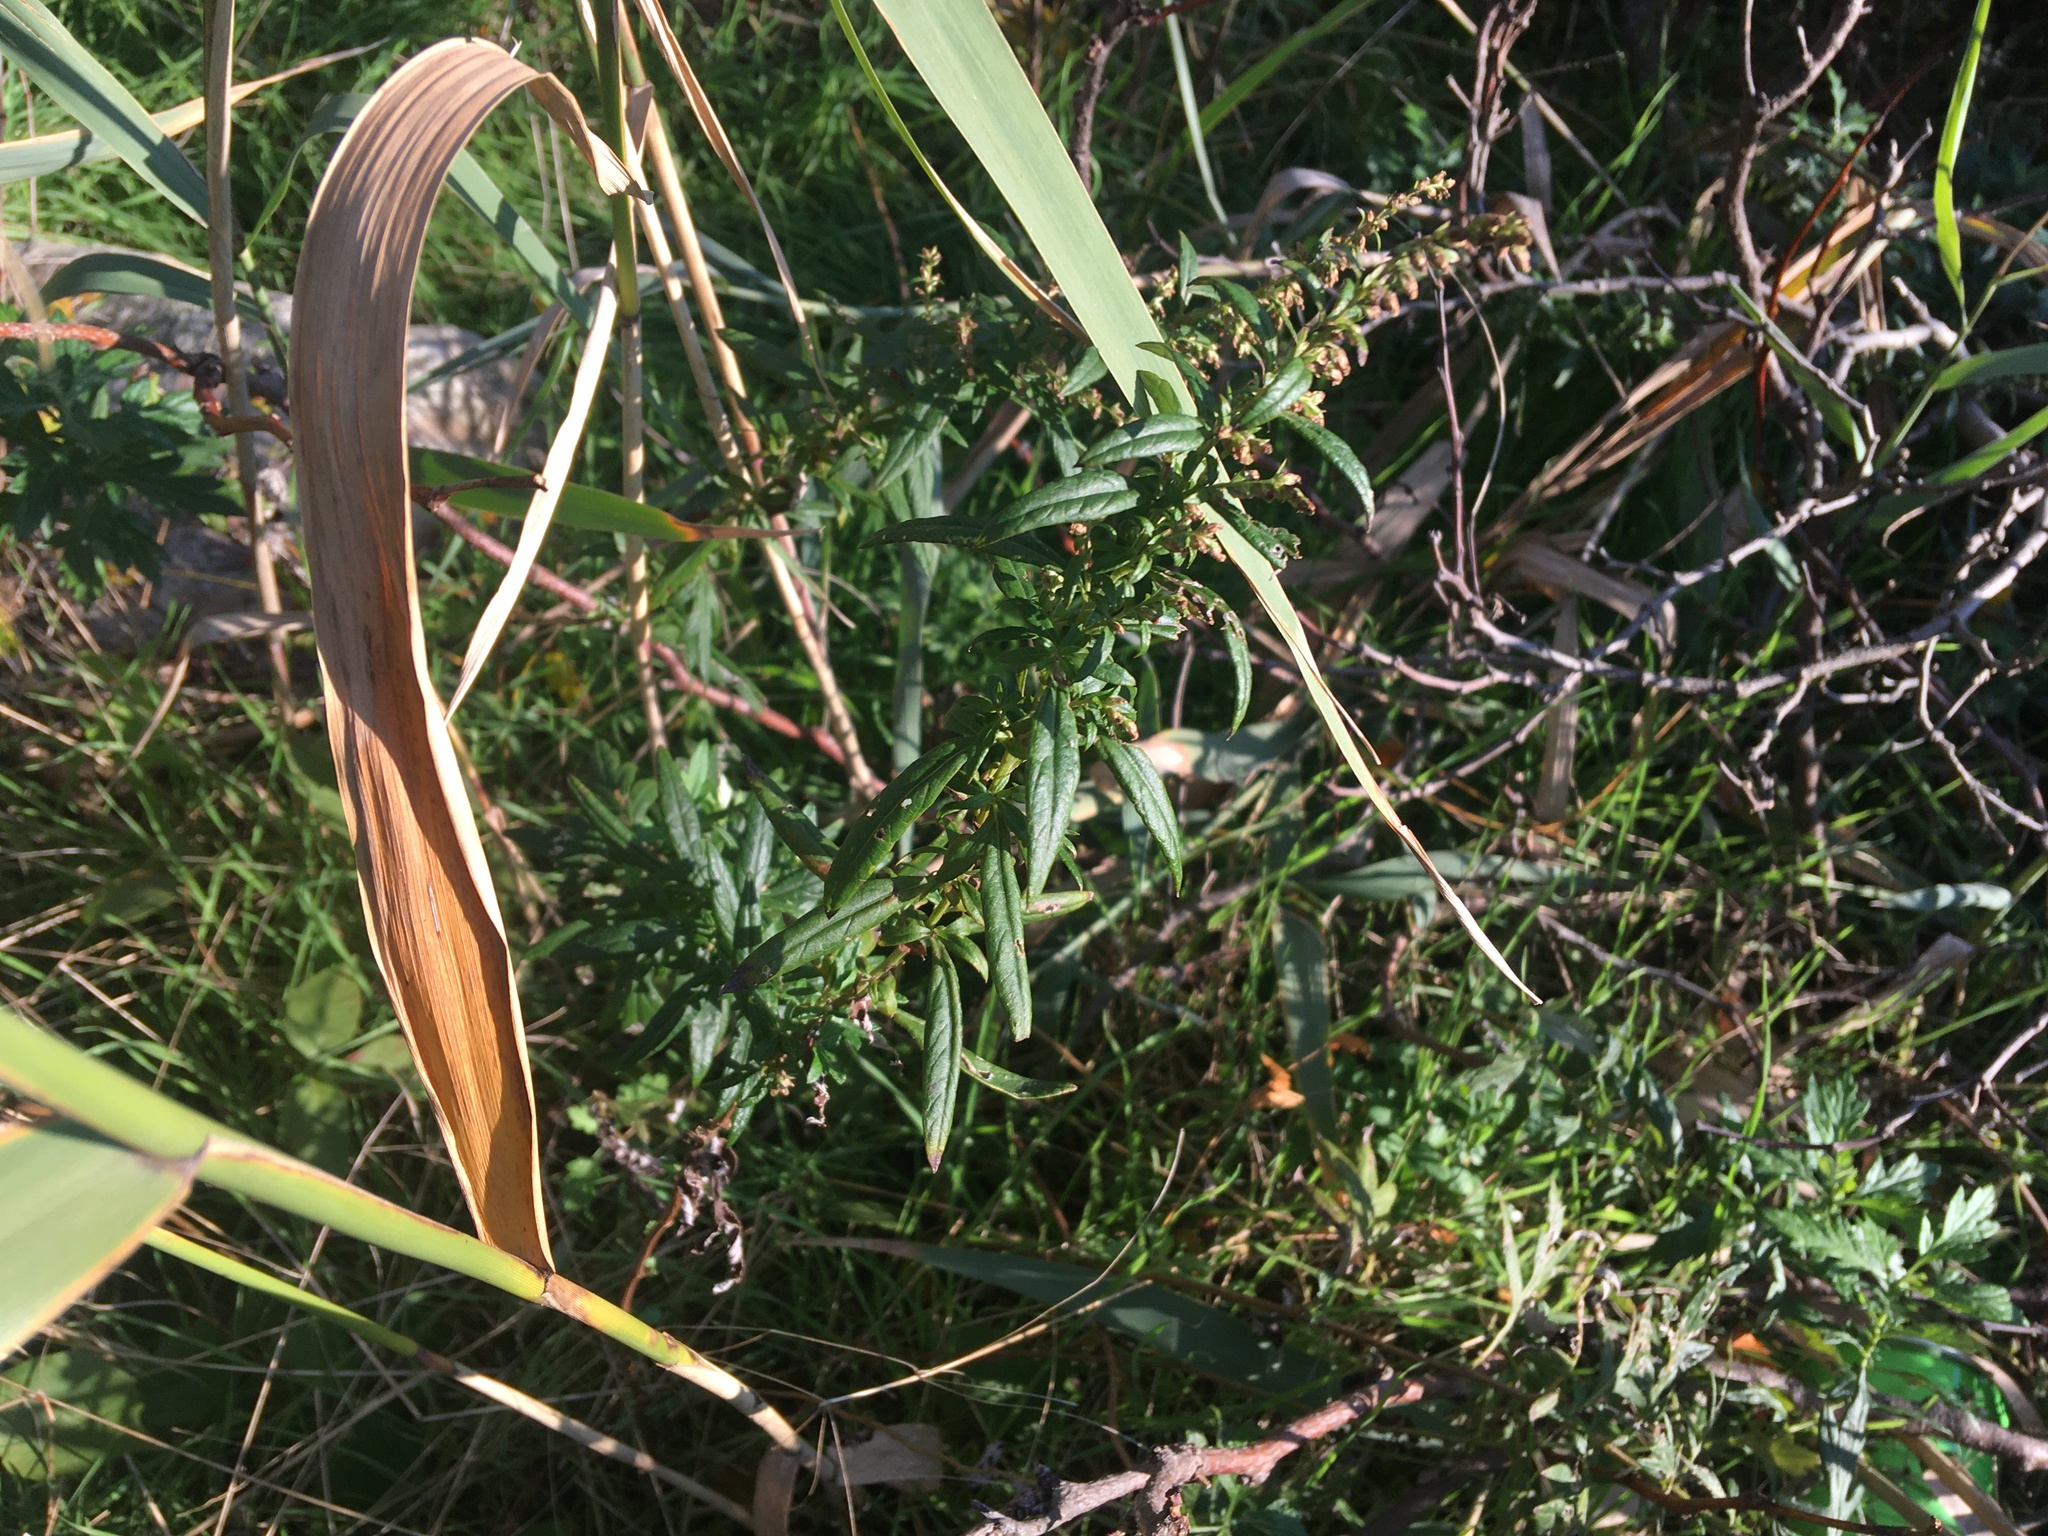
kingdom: Plantae
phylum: Tracheophyta
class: Magnoliopsida
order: Asterales
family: Asteraceae
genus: Artemisia
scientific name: Artemisia vulgaris
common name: Mugwort
